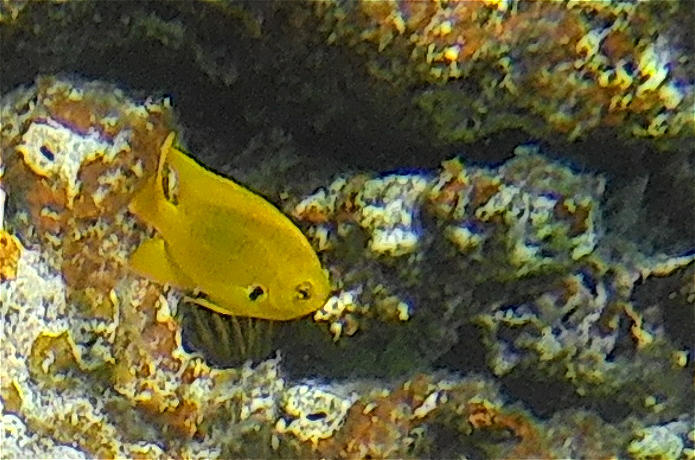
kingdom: Animalia
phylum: Chordata
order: Perciformes
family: Pomacentridae
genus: Pomacentrus
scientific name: Pomacentrus sulfureus
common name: Sulfur damsel
